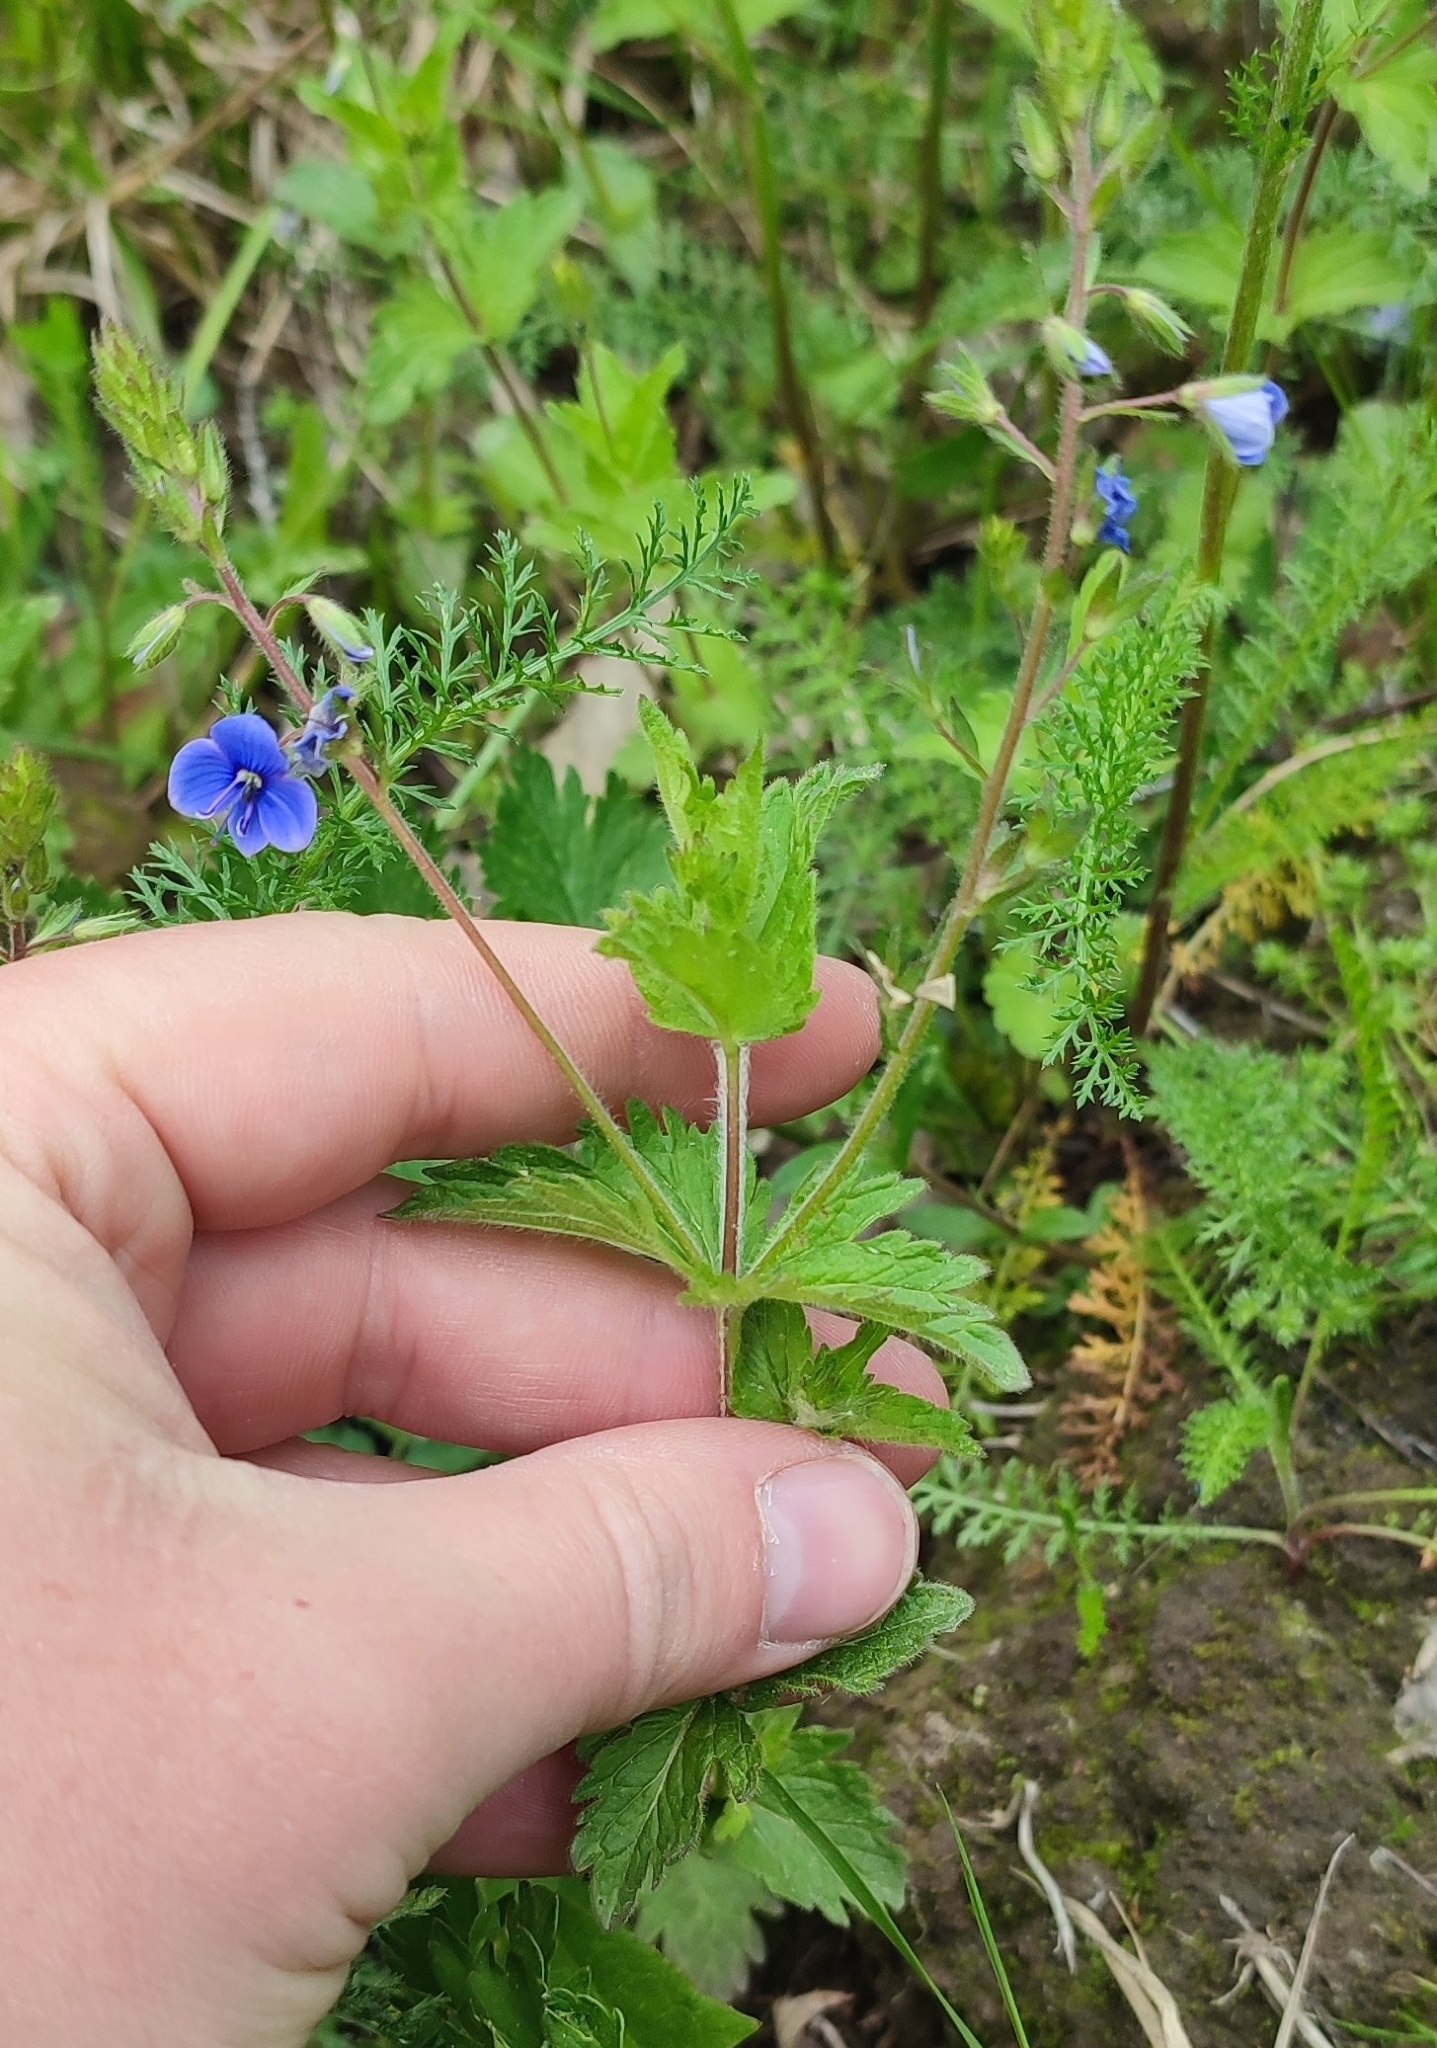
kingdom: Plantae
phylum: Tracheophyta
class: Magnoliopsida
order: Lamiales
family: Plantaginaceae
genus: Veronica
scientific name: Veronica teucrium
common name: Large speedwell
